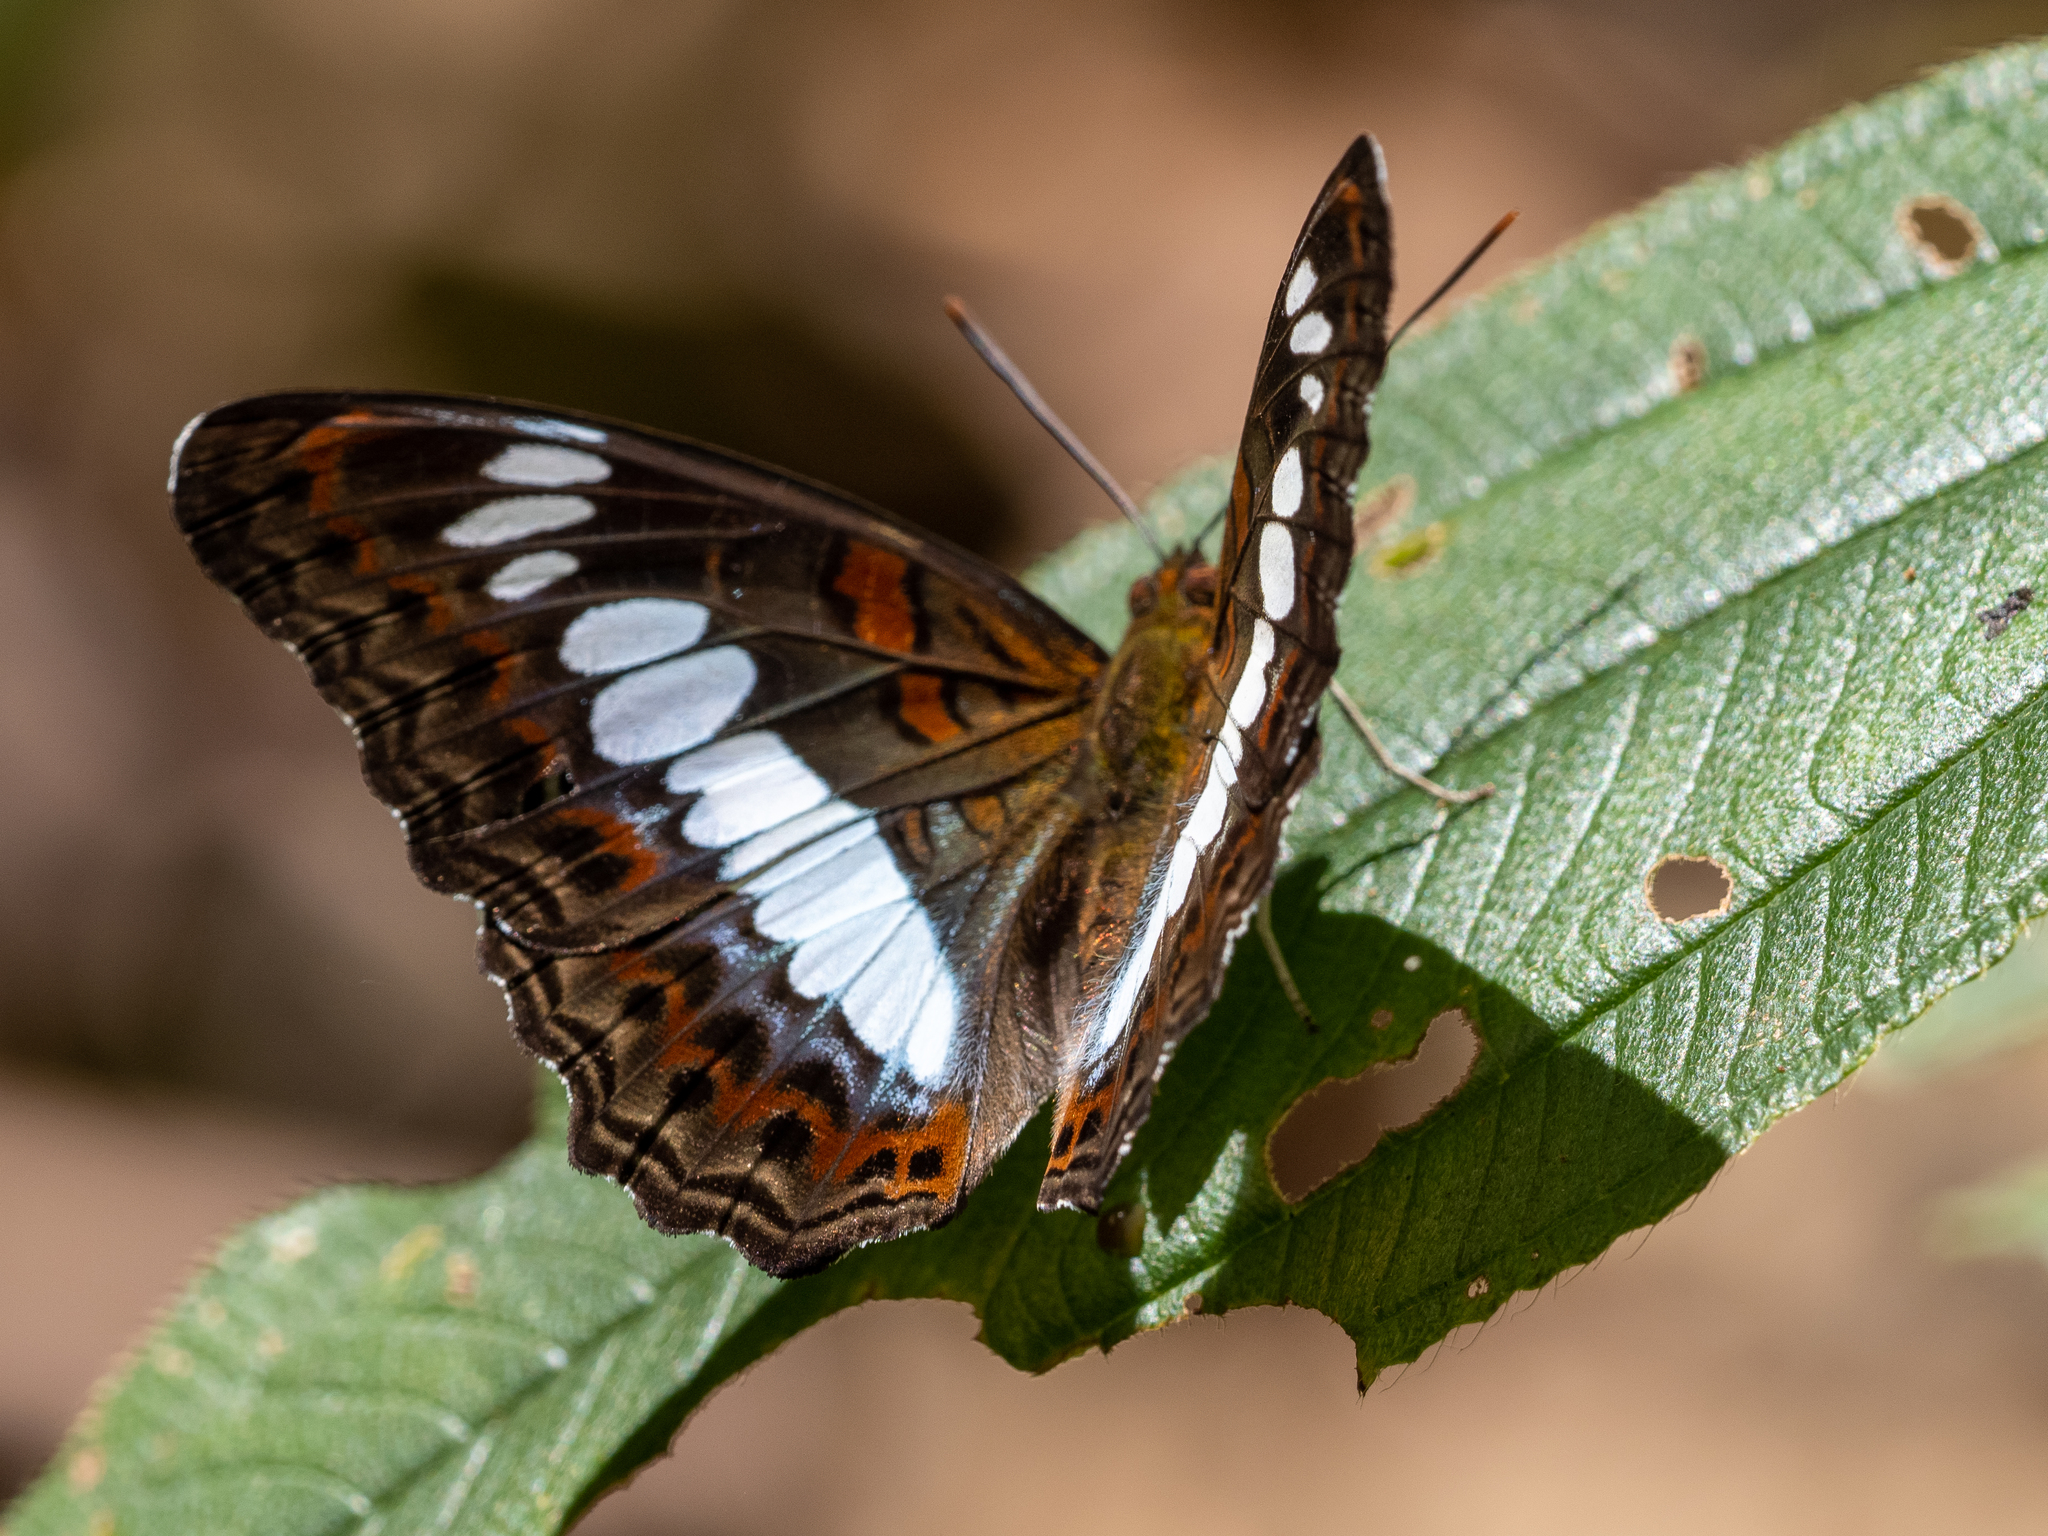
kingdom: Animalia
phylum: Arthropoda
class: Insecta
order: Lepidoptera
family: Nymphalidae
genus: Limenitis
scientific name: Limenitis Moduza procris
